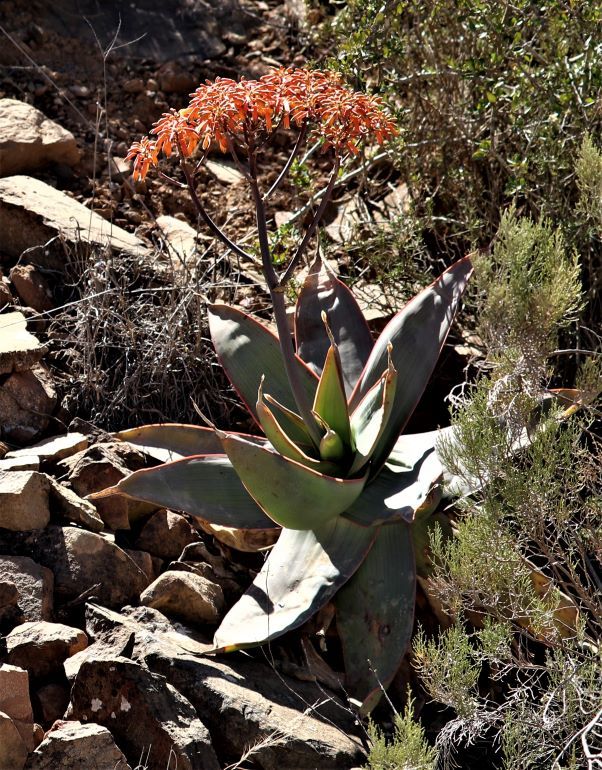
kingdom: Plantae
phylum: Tracheophyta
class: Liliopsida
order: Asparagales
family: Asphodelaceae
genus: Aloe
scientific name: Aloe striata
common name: Coral aloe
